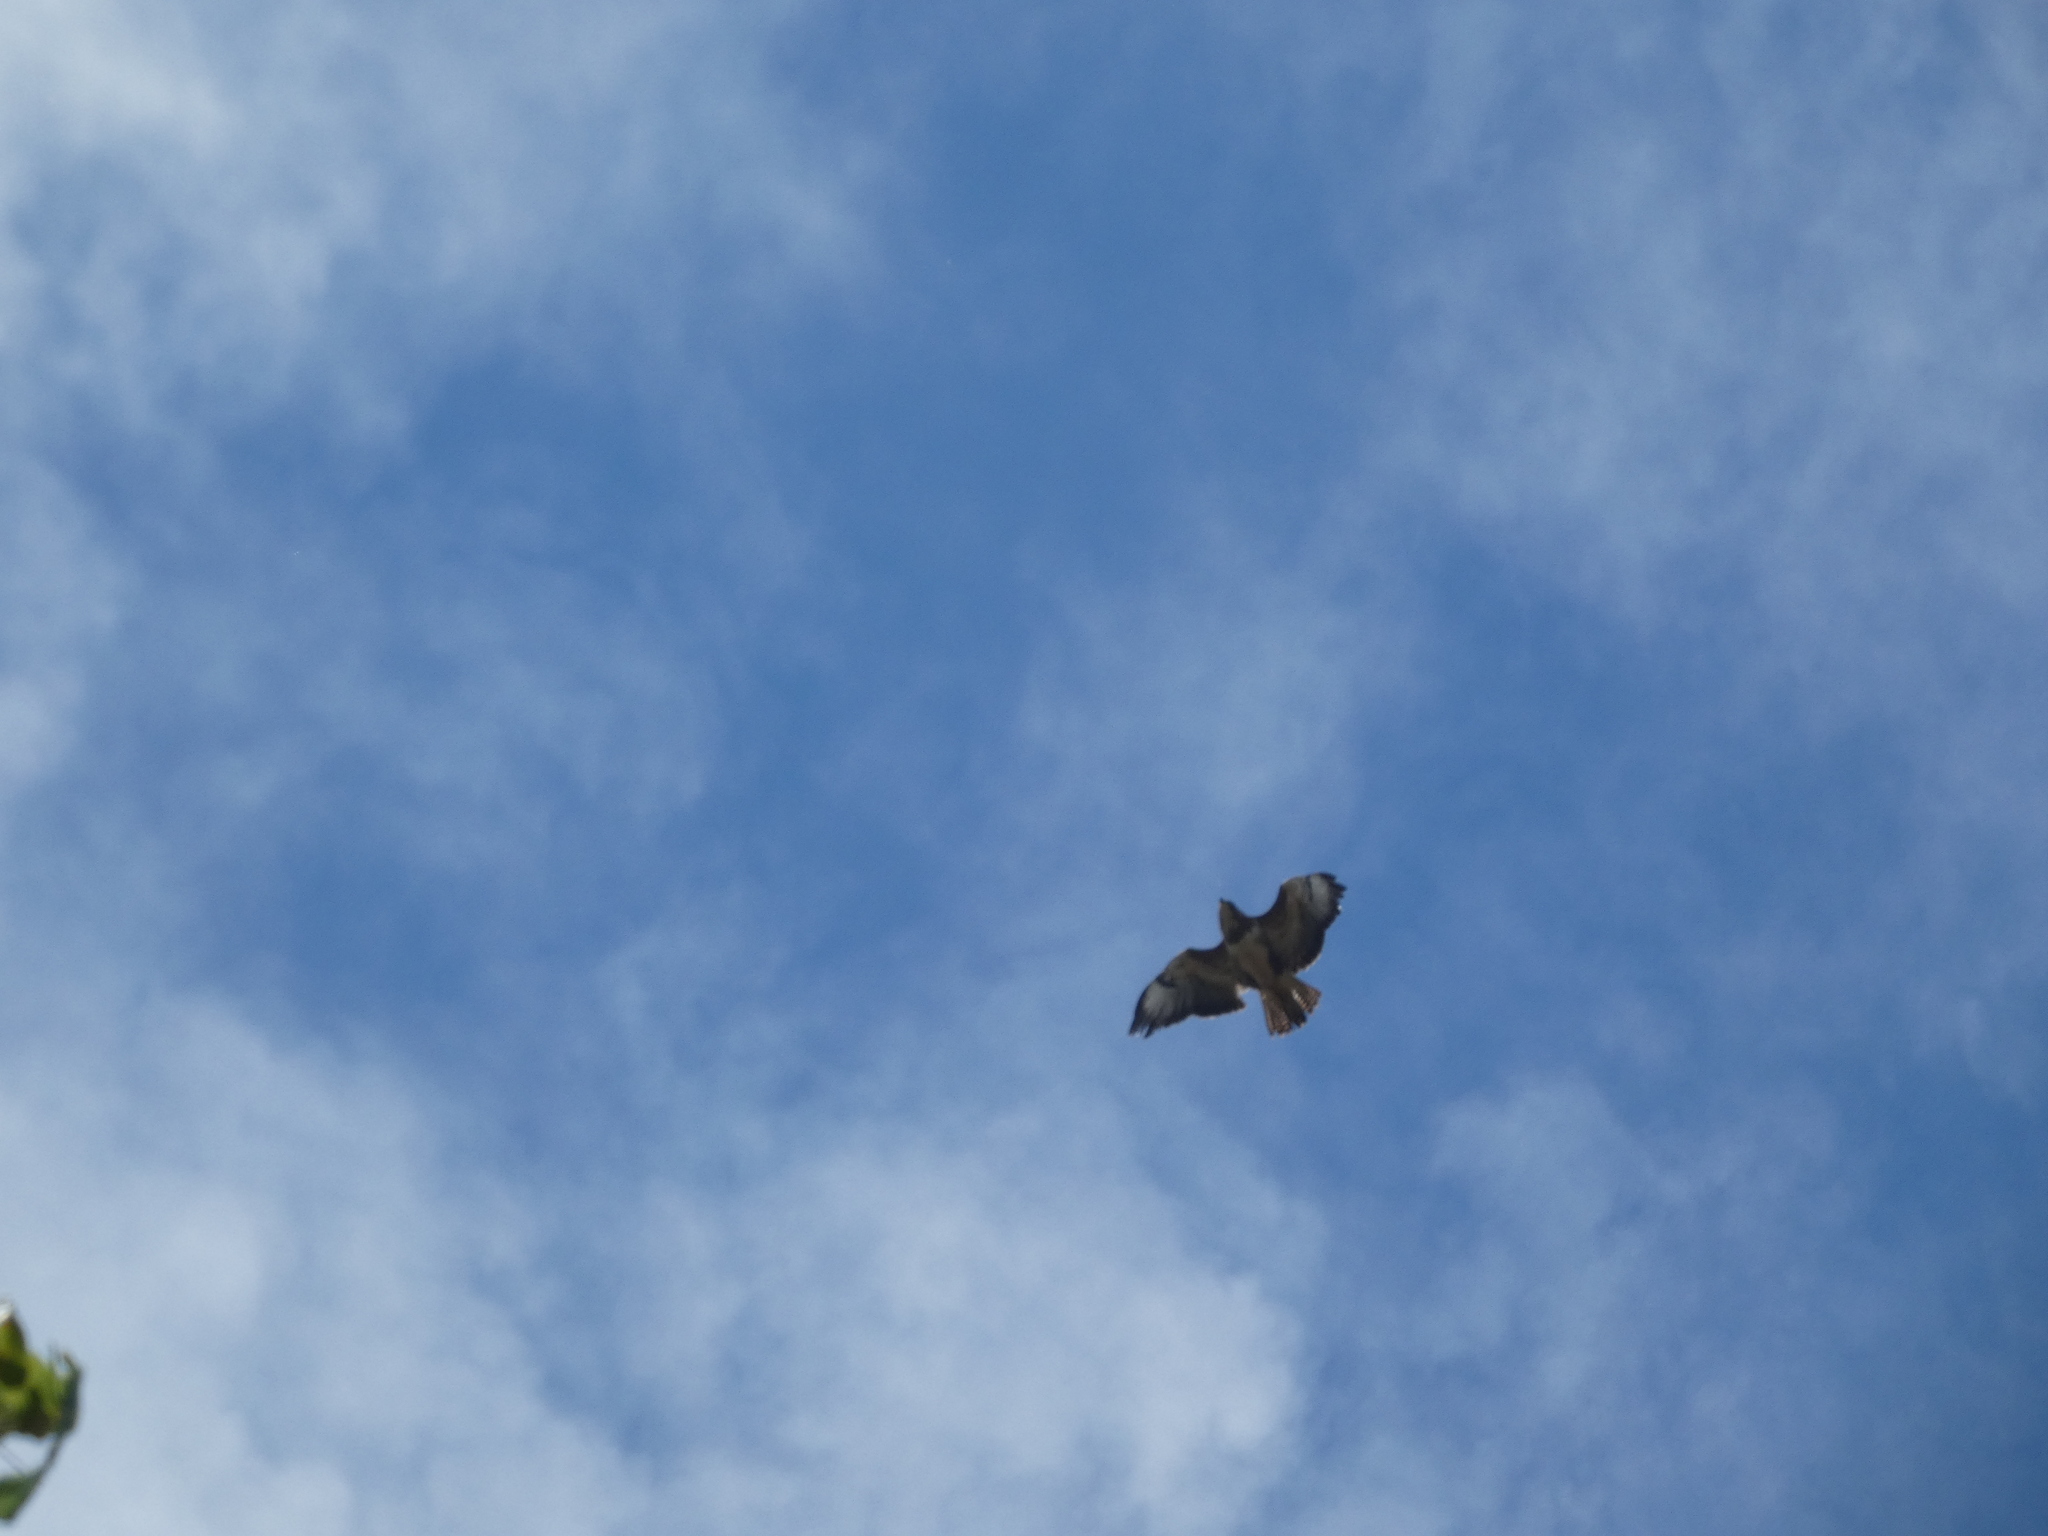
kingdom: Animalia
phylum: Chordata
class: Aves
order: Accipitriformes
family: Accipitridae
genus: Buteo
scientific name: Buteo buteo
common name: Common buzzard
